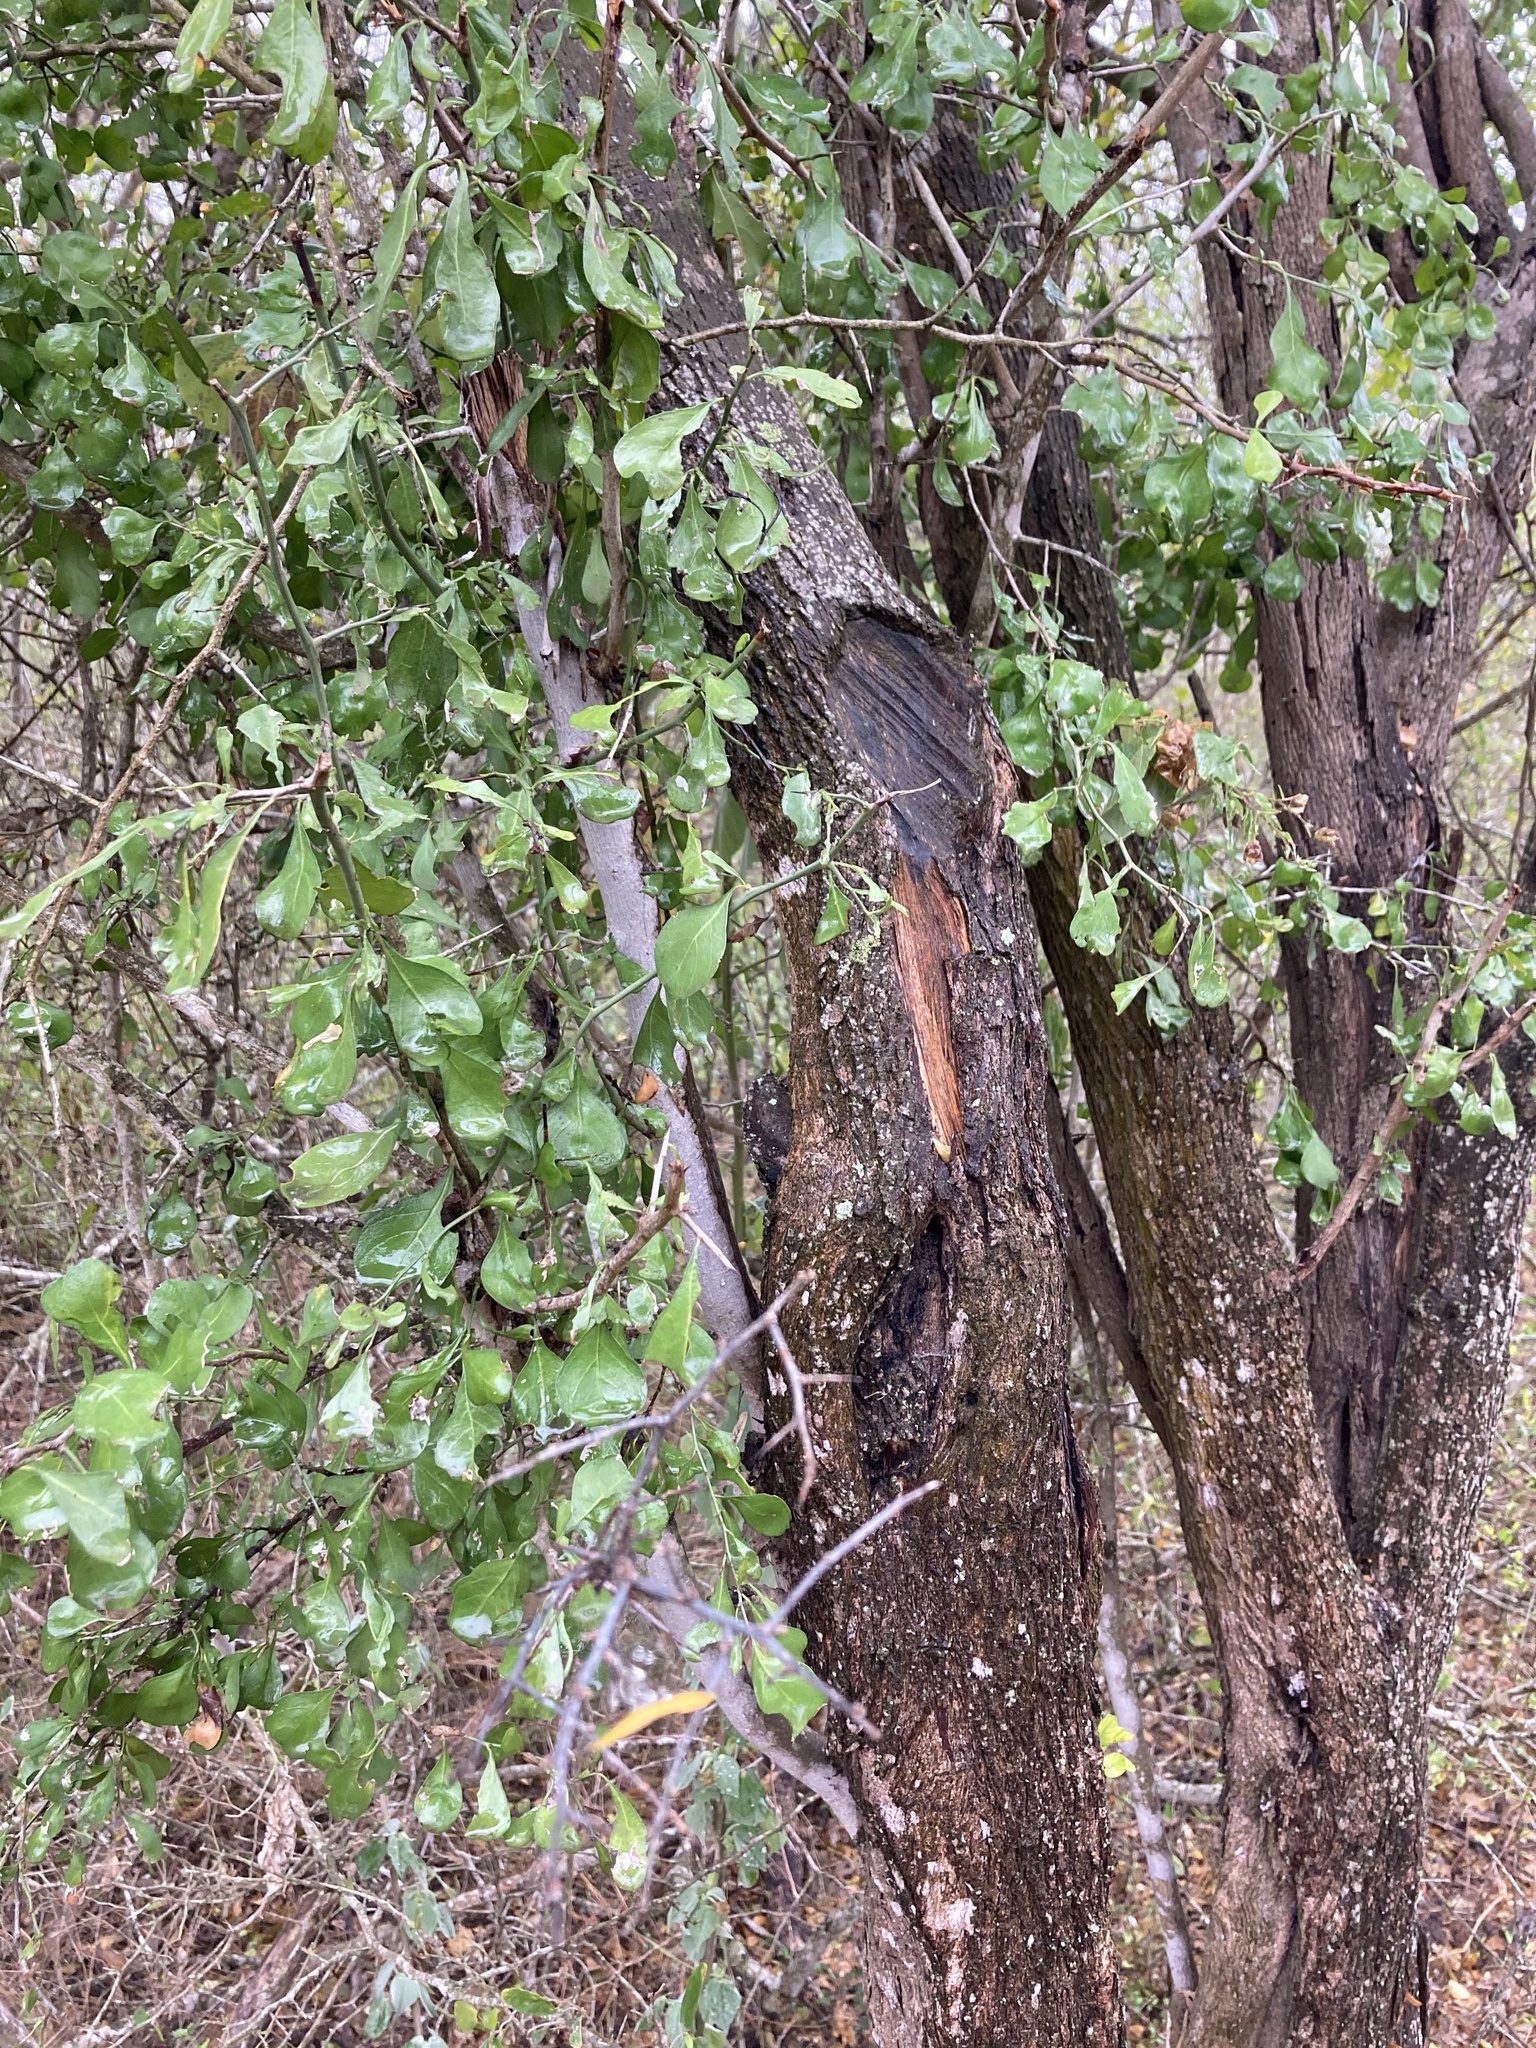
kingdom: Plantae
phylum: Tracheophyta
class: Magnoliopsida
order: Rosales
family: Rhamnaceae
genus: Condalia
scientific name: Condalia hookeri
